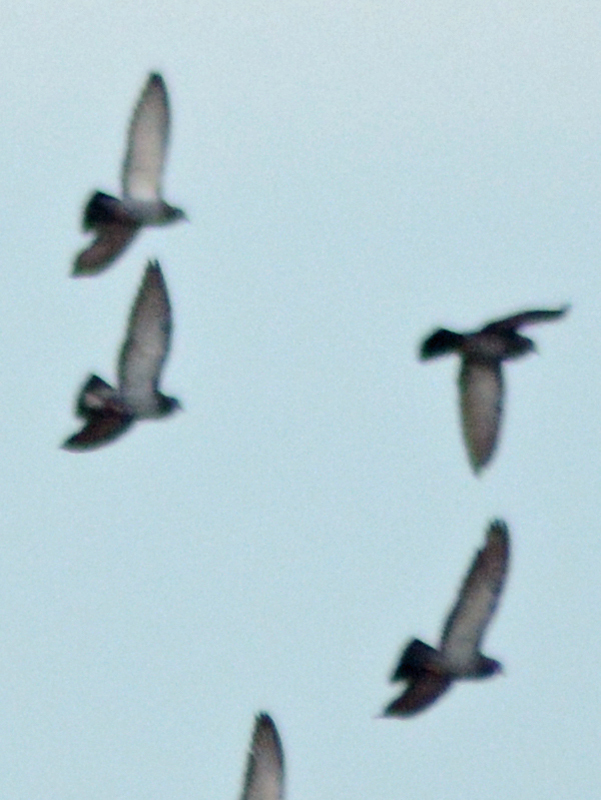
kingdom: Animalia
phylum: Chordata
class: Aves
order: Columbiformes
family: Columbidae
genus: Columba
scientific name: Columba livia
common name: Rock pigeon
